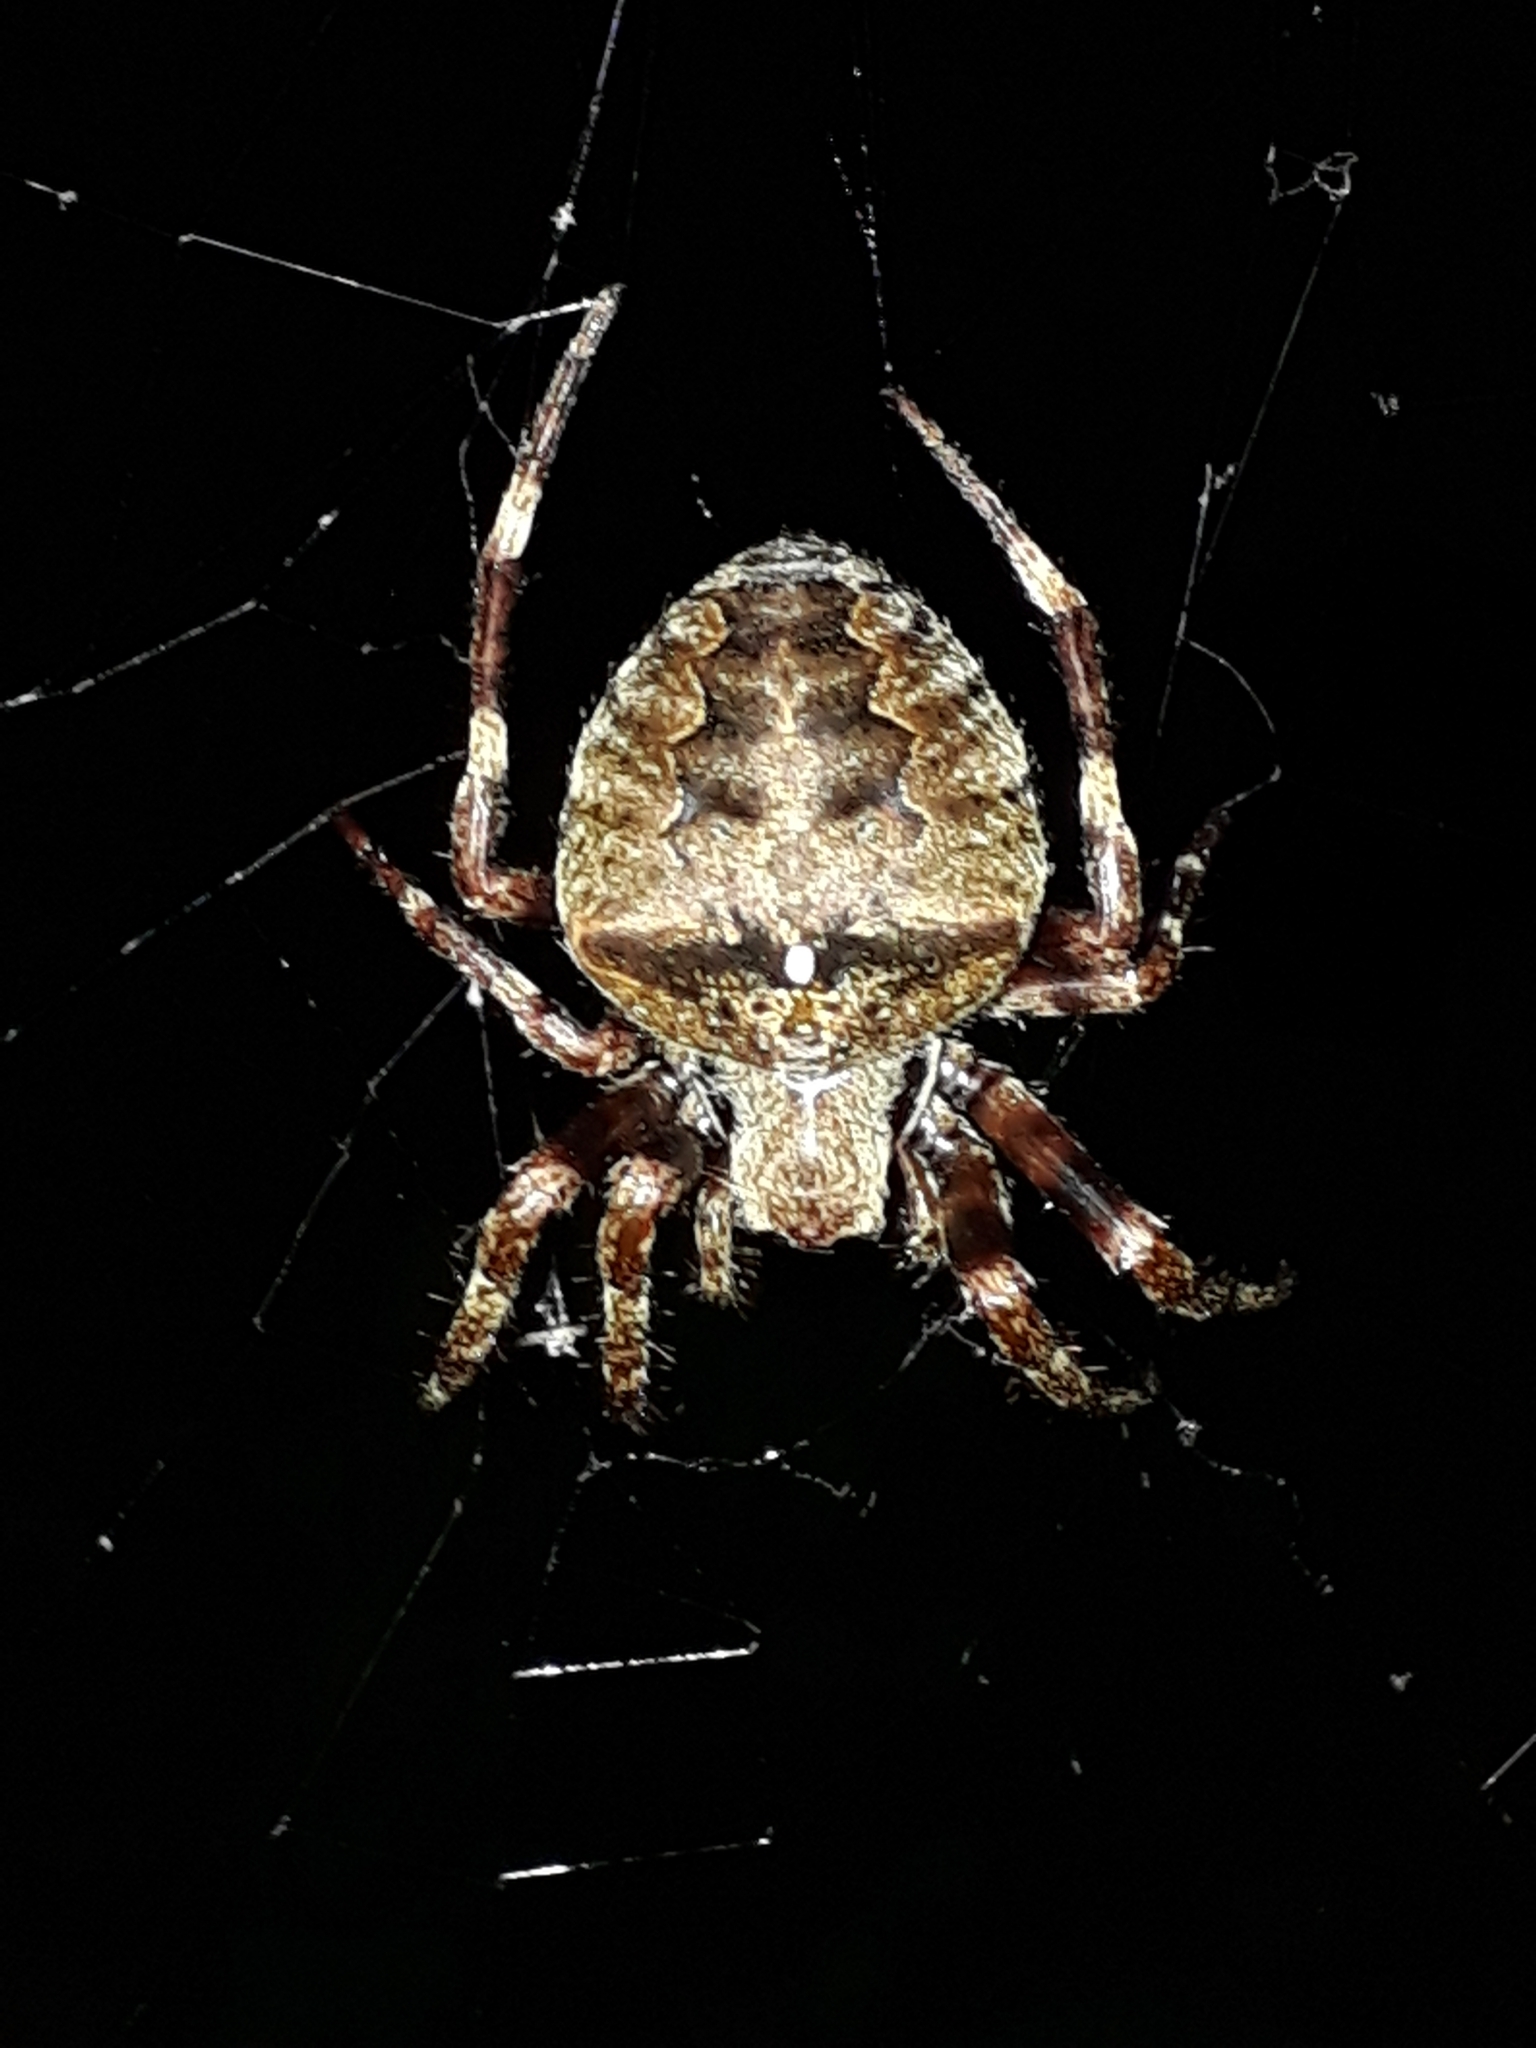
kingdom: Animalia
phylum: Arthropoda
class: Arachnida
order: Araneae
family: Araneidae
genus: Araneus
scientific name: Araneus angulatus
